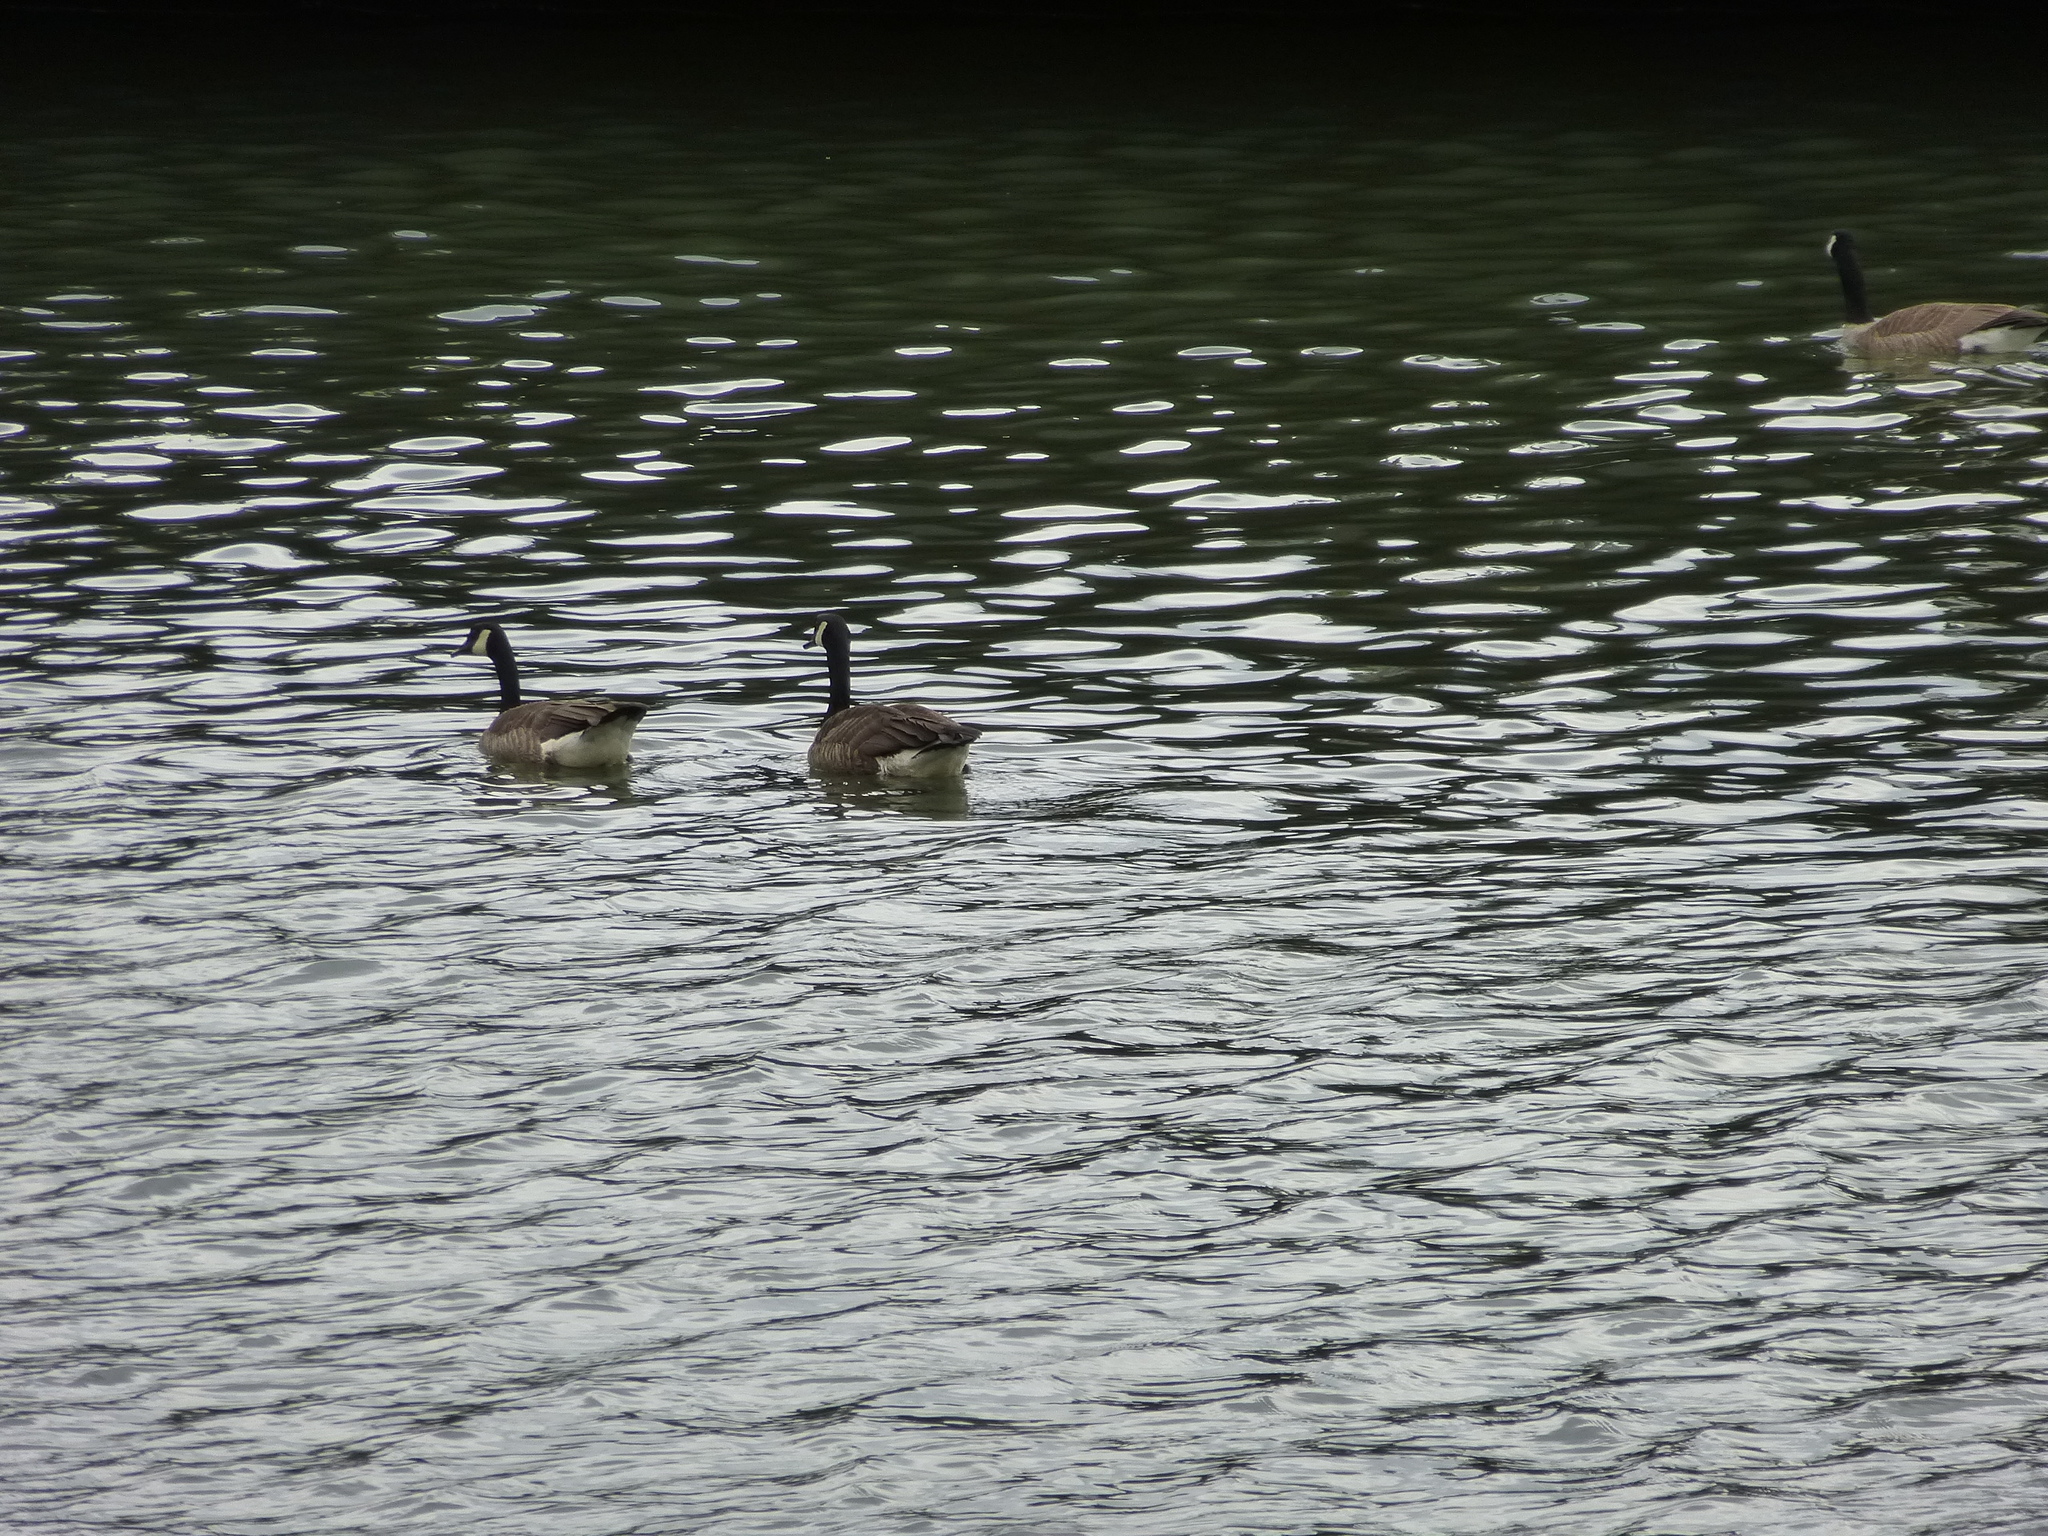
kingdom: Animalia
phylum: Chordata
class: Aves
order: Anseriformes
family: Anatidae
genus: Branta
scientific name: Branta canadensis
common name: Canada goose
